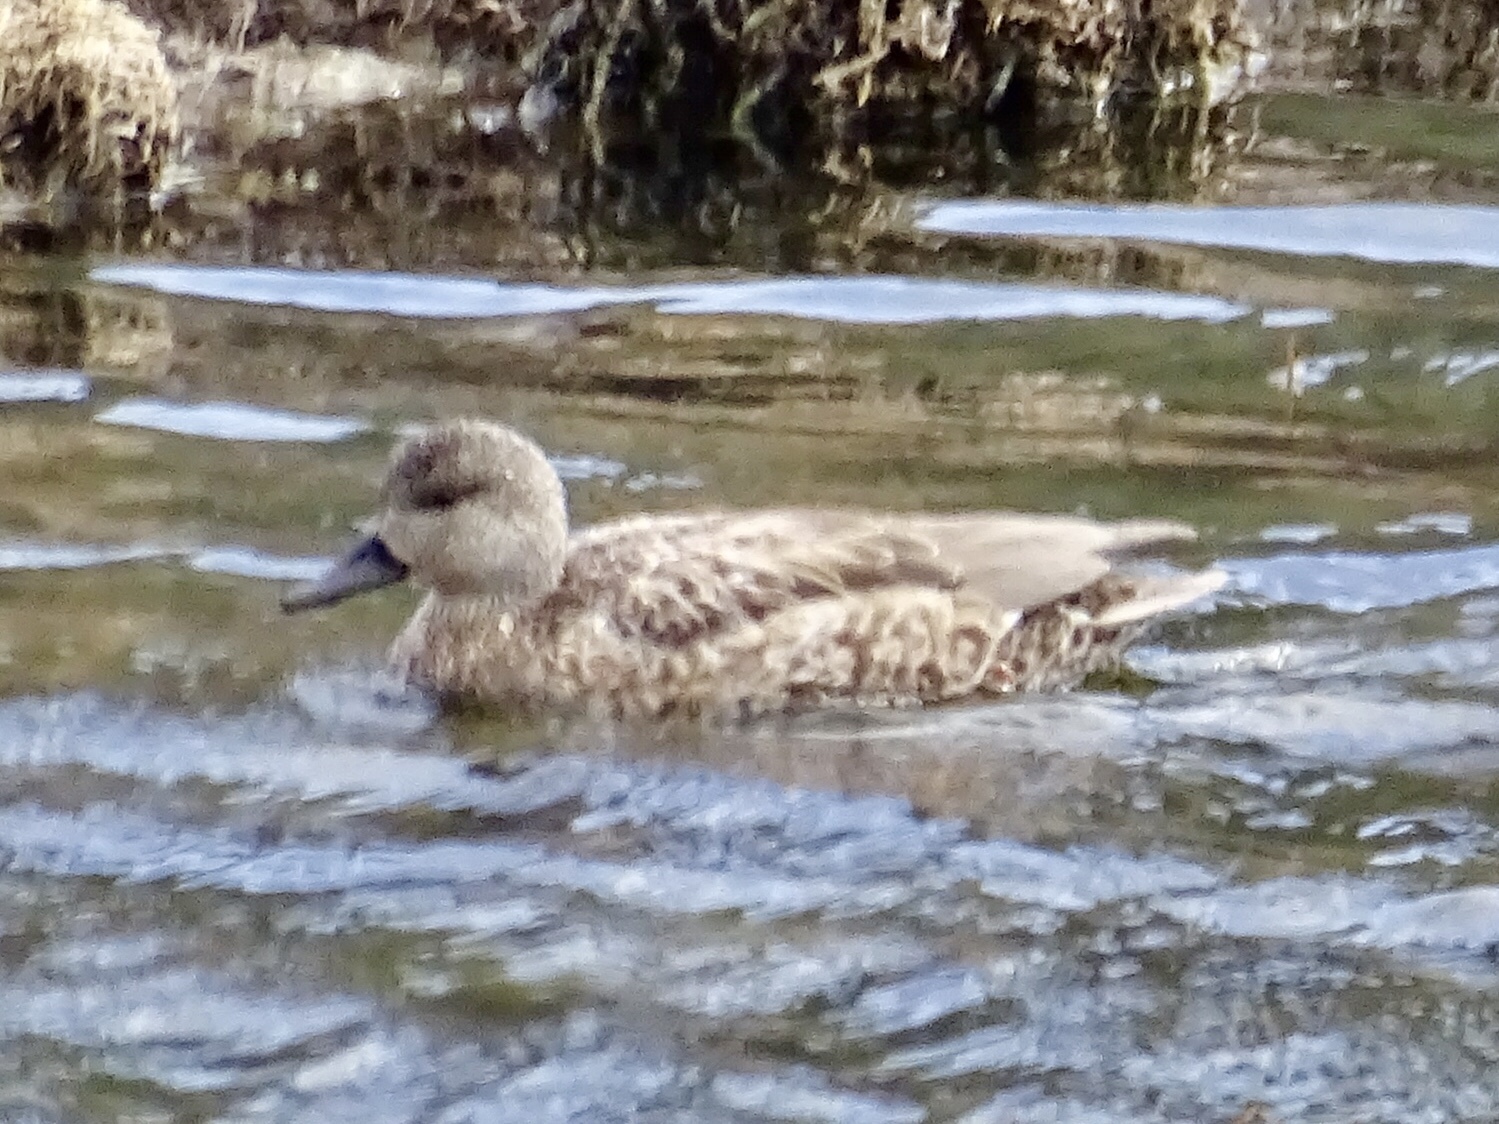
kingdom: Animalia
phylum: Chordata
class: Aves
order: Anseriformes
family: Anatidae
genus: Mareca
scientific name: Mareca strepera
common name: Gadwall
